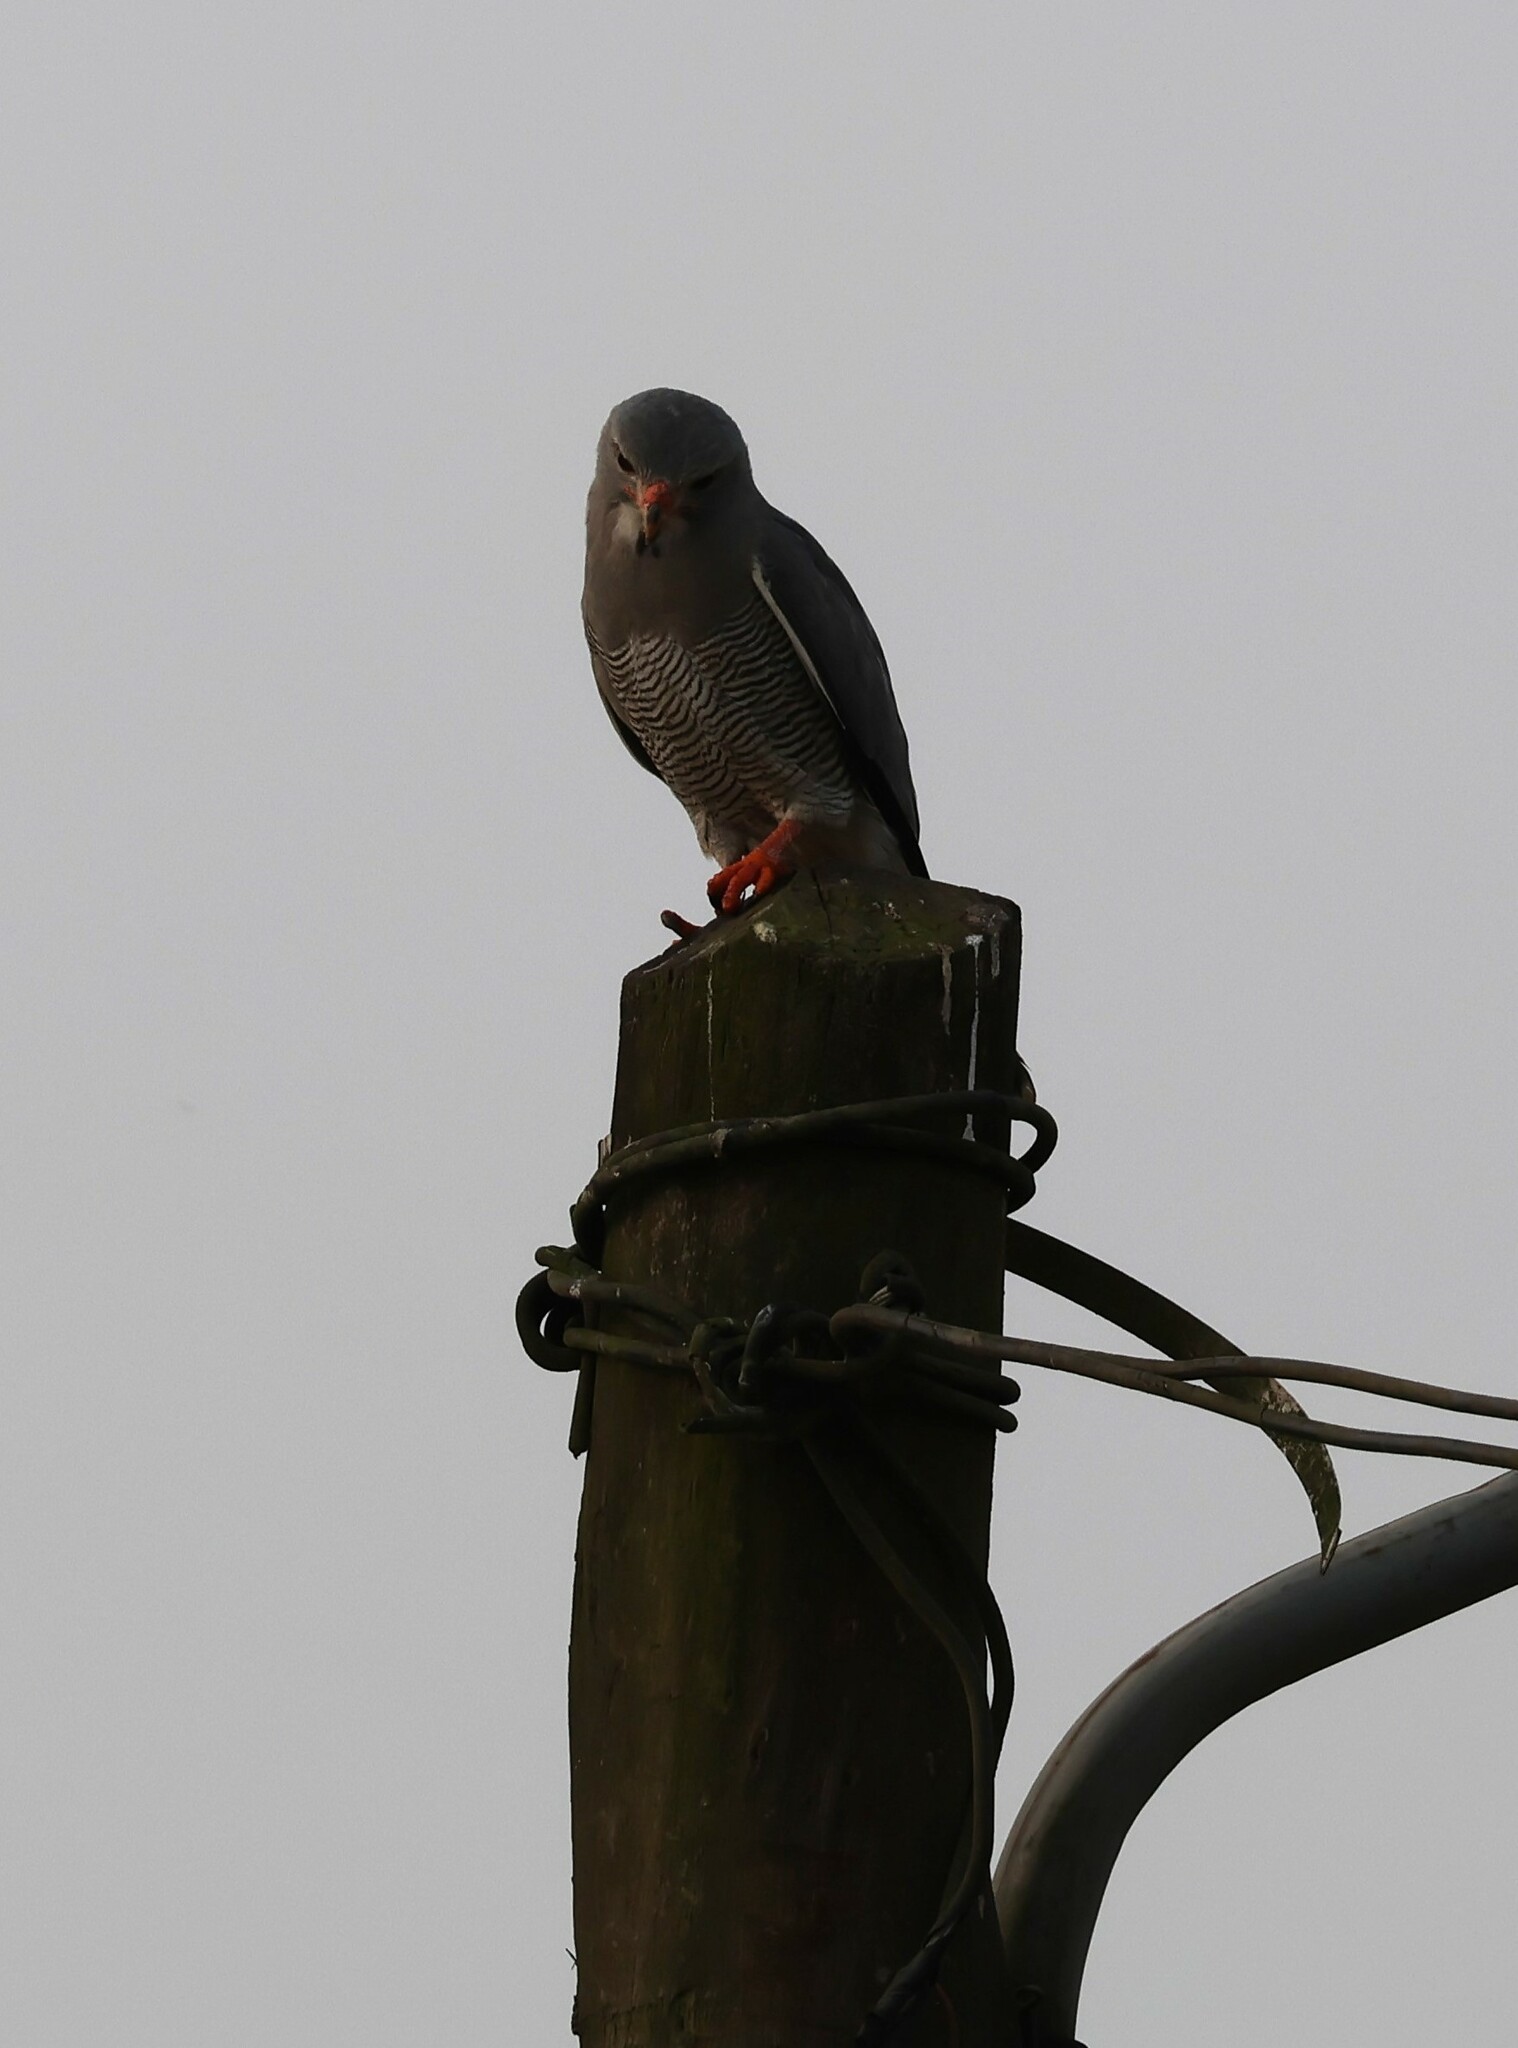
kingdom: Animalia
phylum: Chordata
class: Aves
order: Accipitriformes
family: Accipitridae
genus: Kaupifalco
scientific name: Kaupifalco monogrammicus
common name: Lizard buzzard
